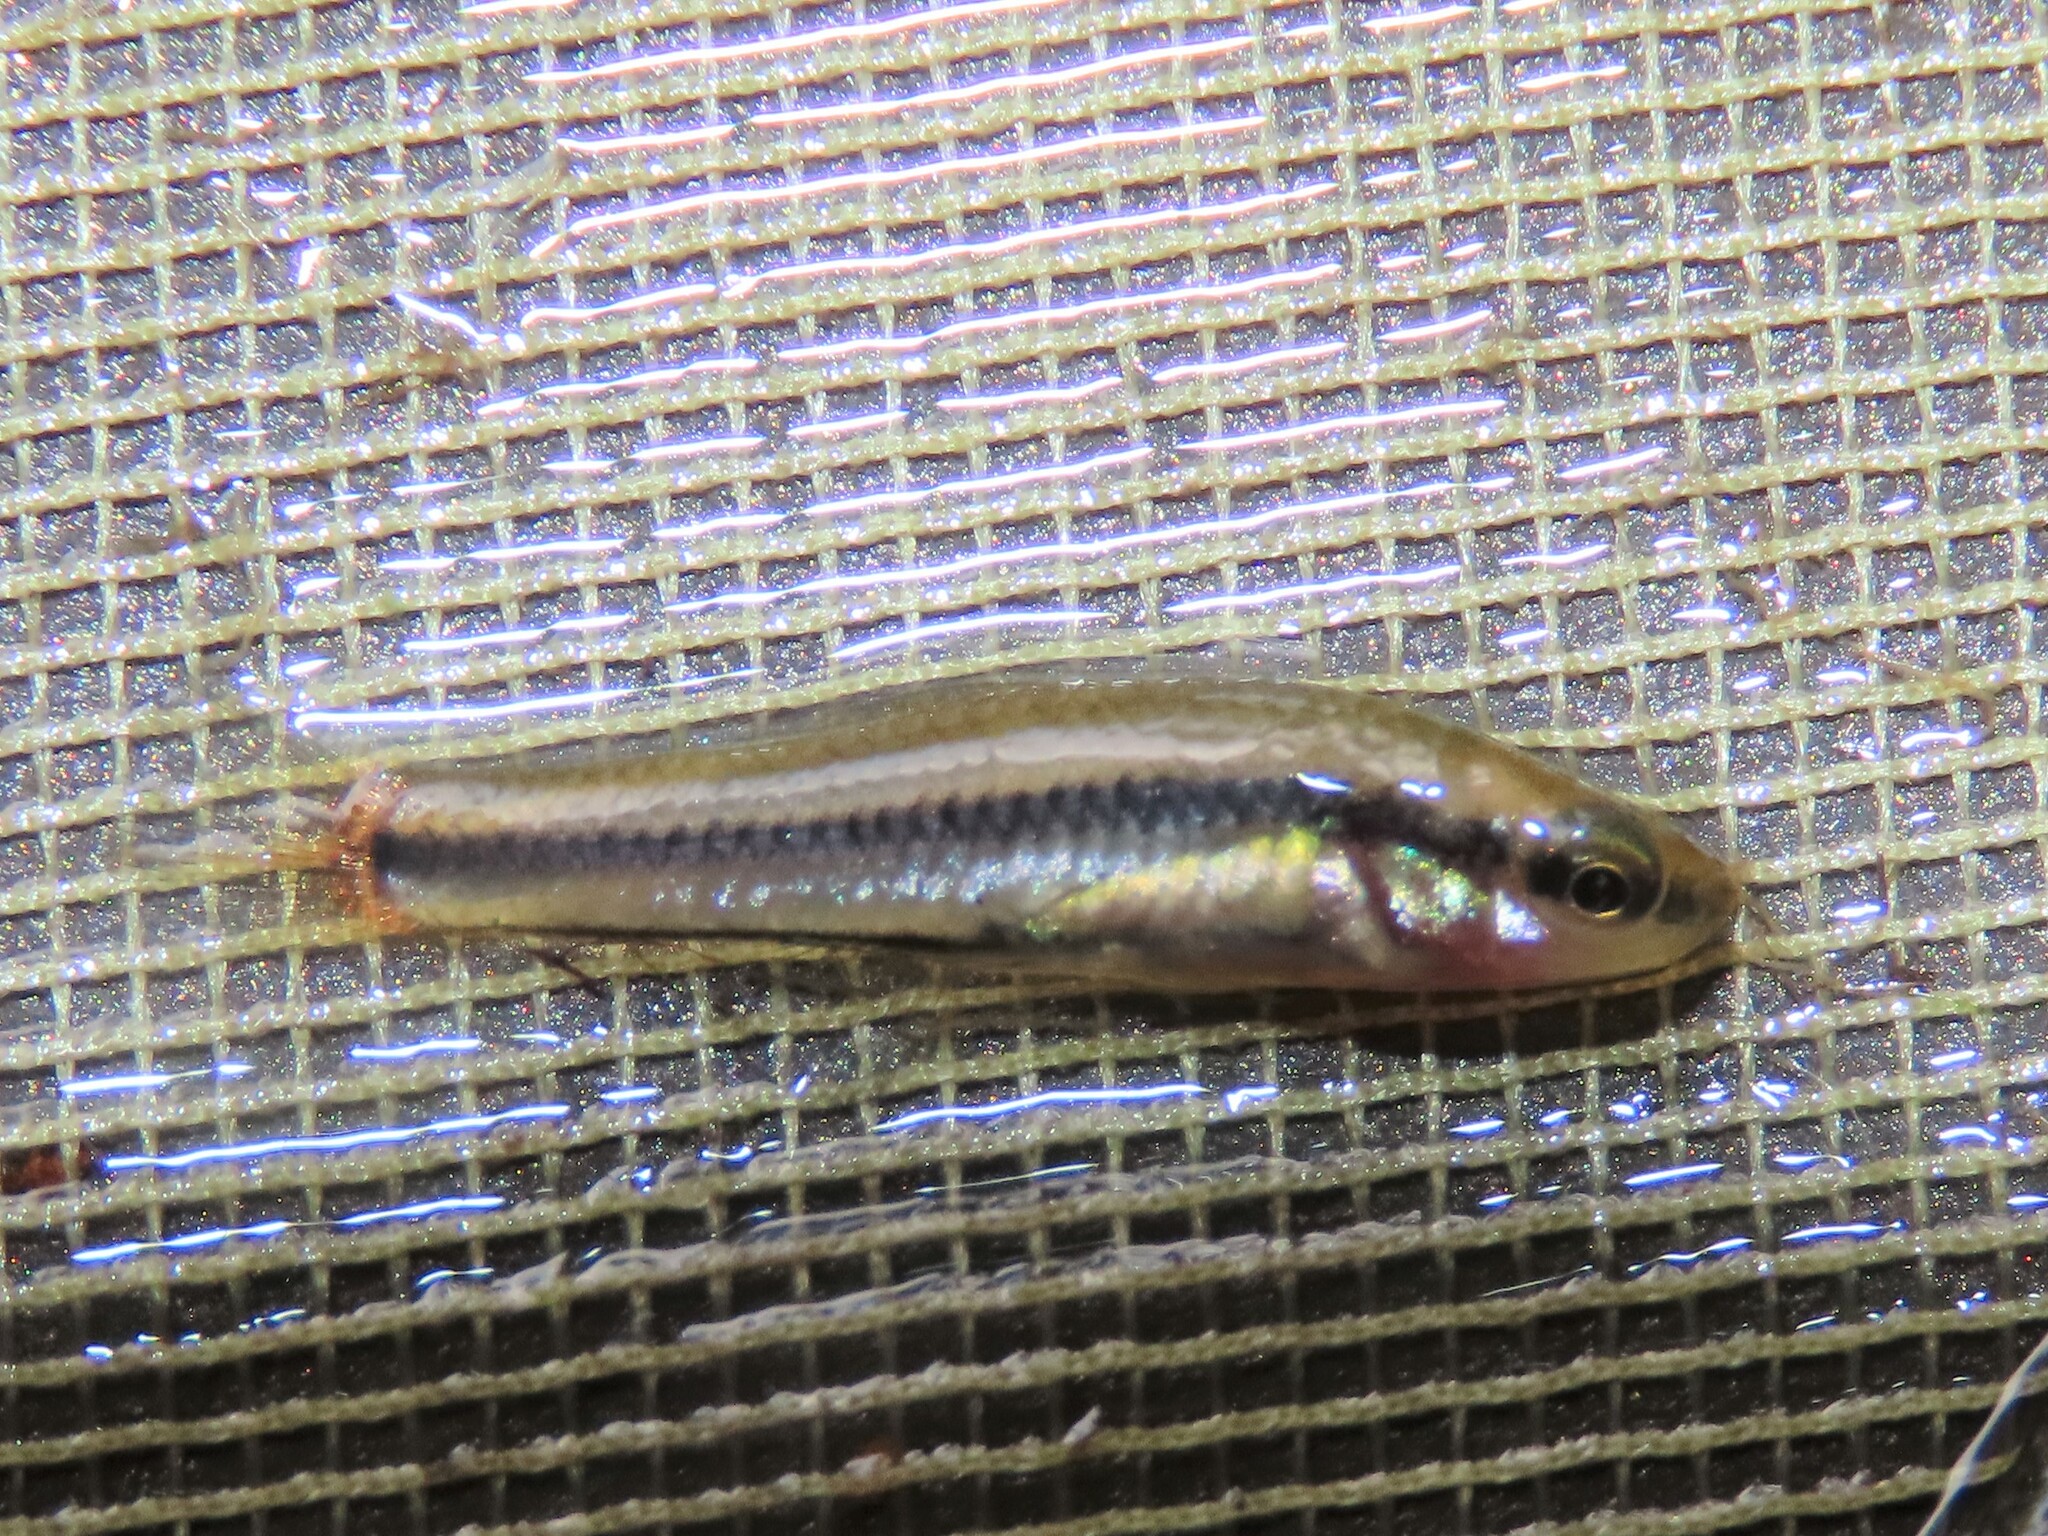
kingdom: Animalia
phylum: Chordata
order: Cyprinodontiformes
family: Fundulidae
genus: Lucania
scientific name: Lucania goodei
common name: Bluefin killifish
